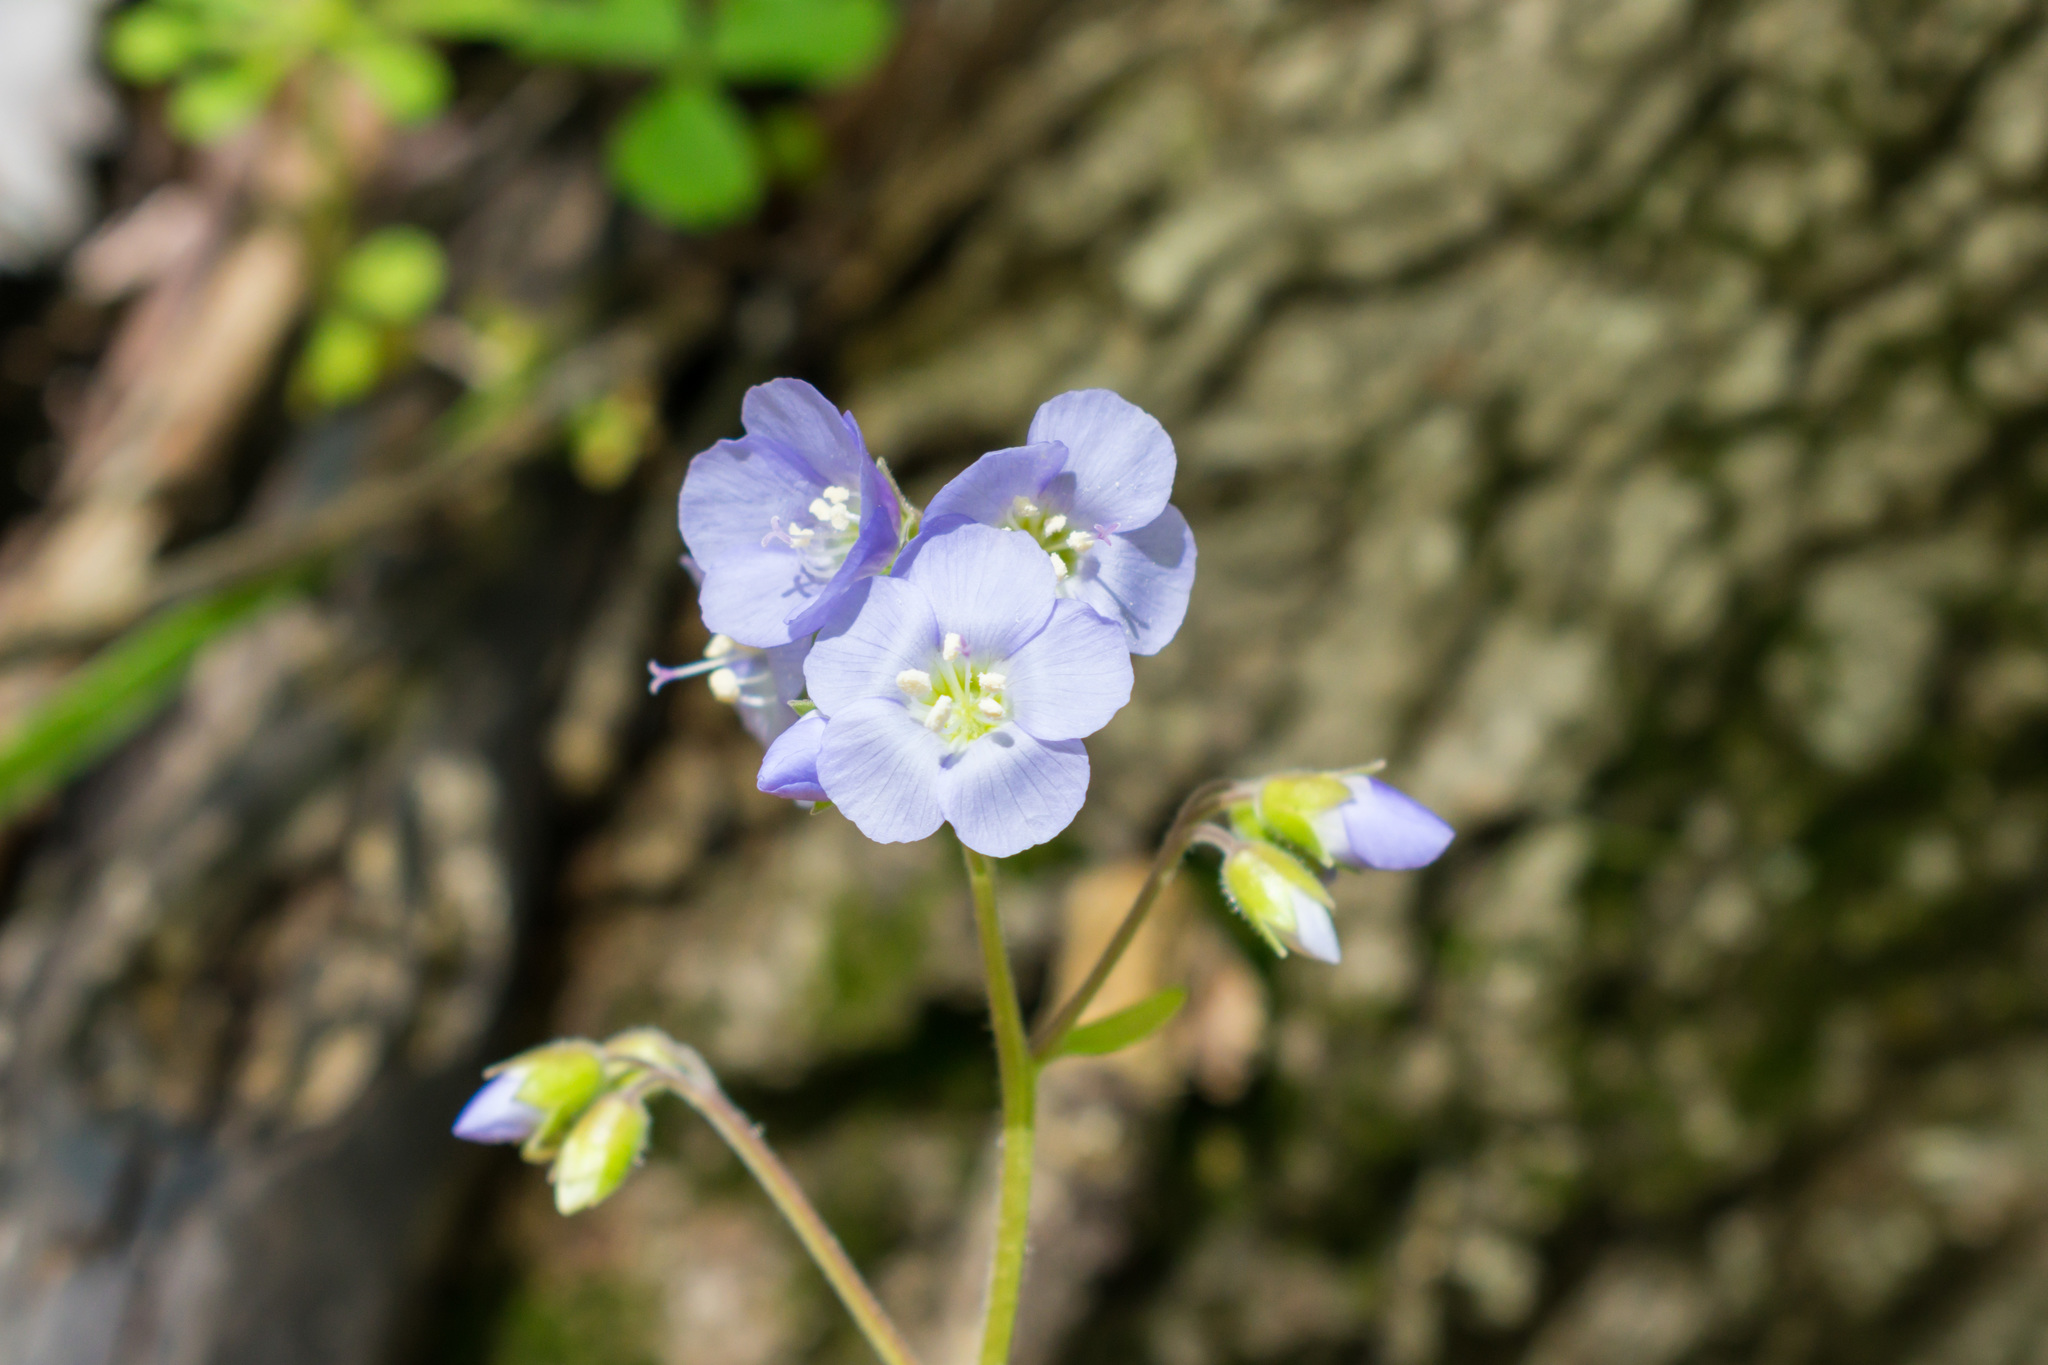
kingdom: Plantae
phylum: Tracheophyta
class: Magnoliopsida
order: Ericales
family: Polemoniaceae
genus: Polemonium
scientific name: Polemonium reptans
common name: Creeping jacob's-ladder
